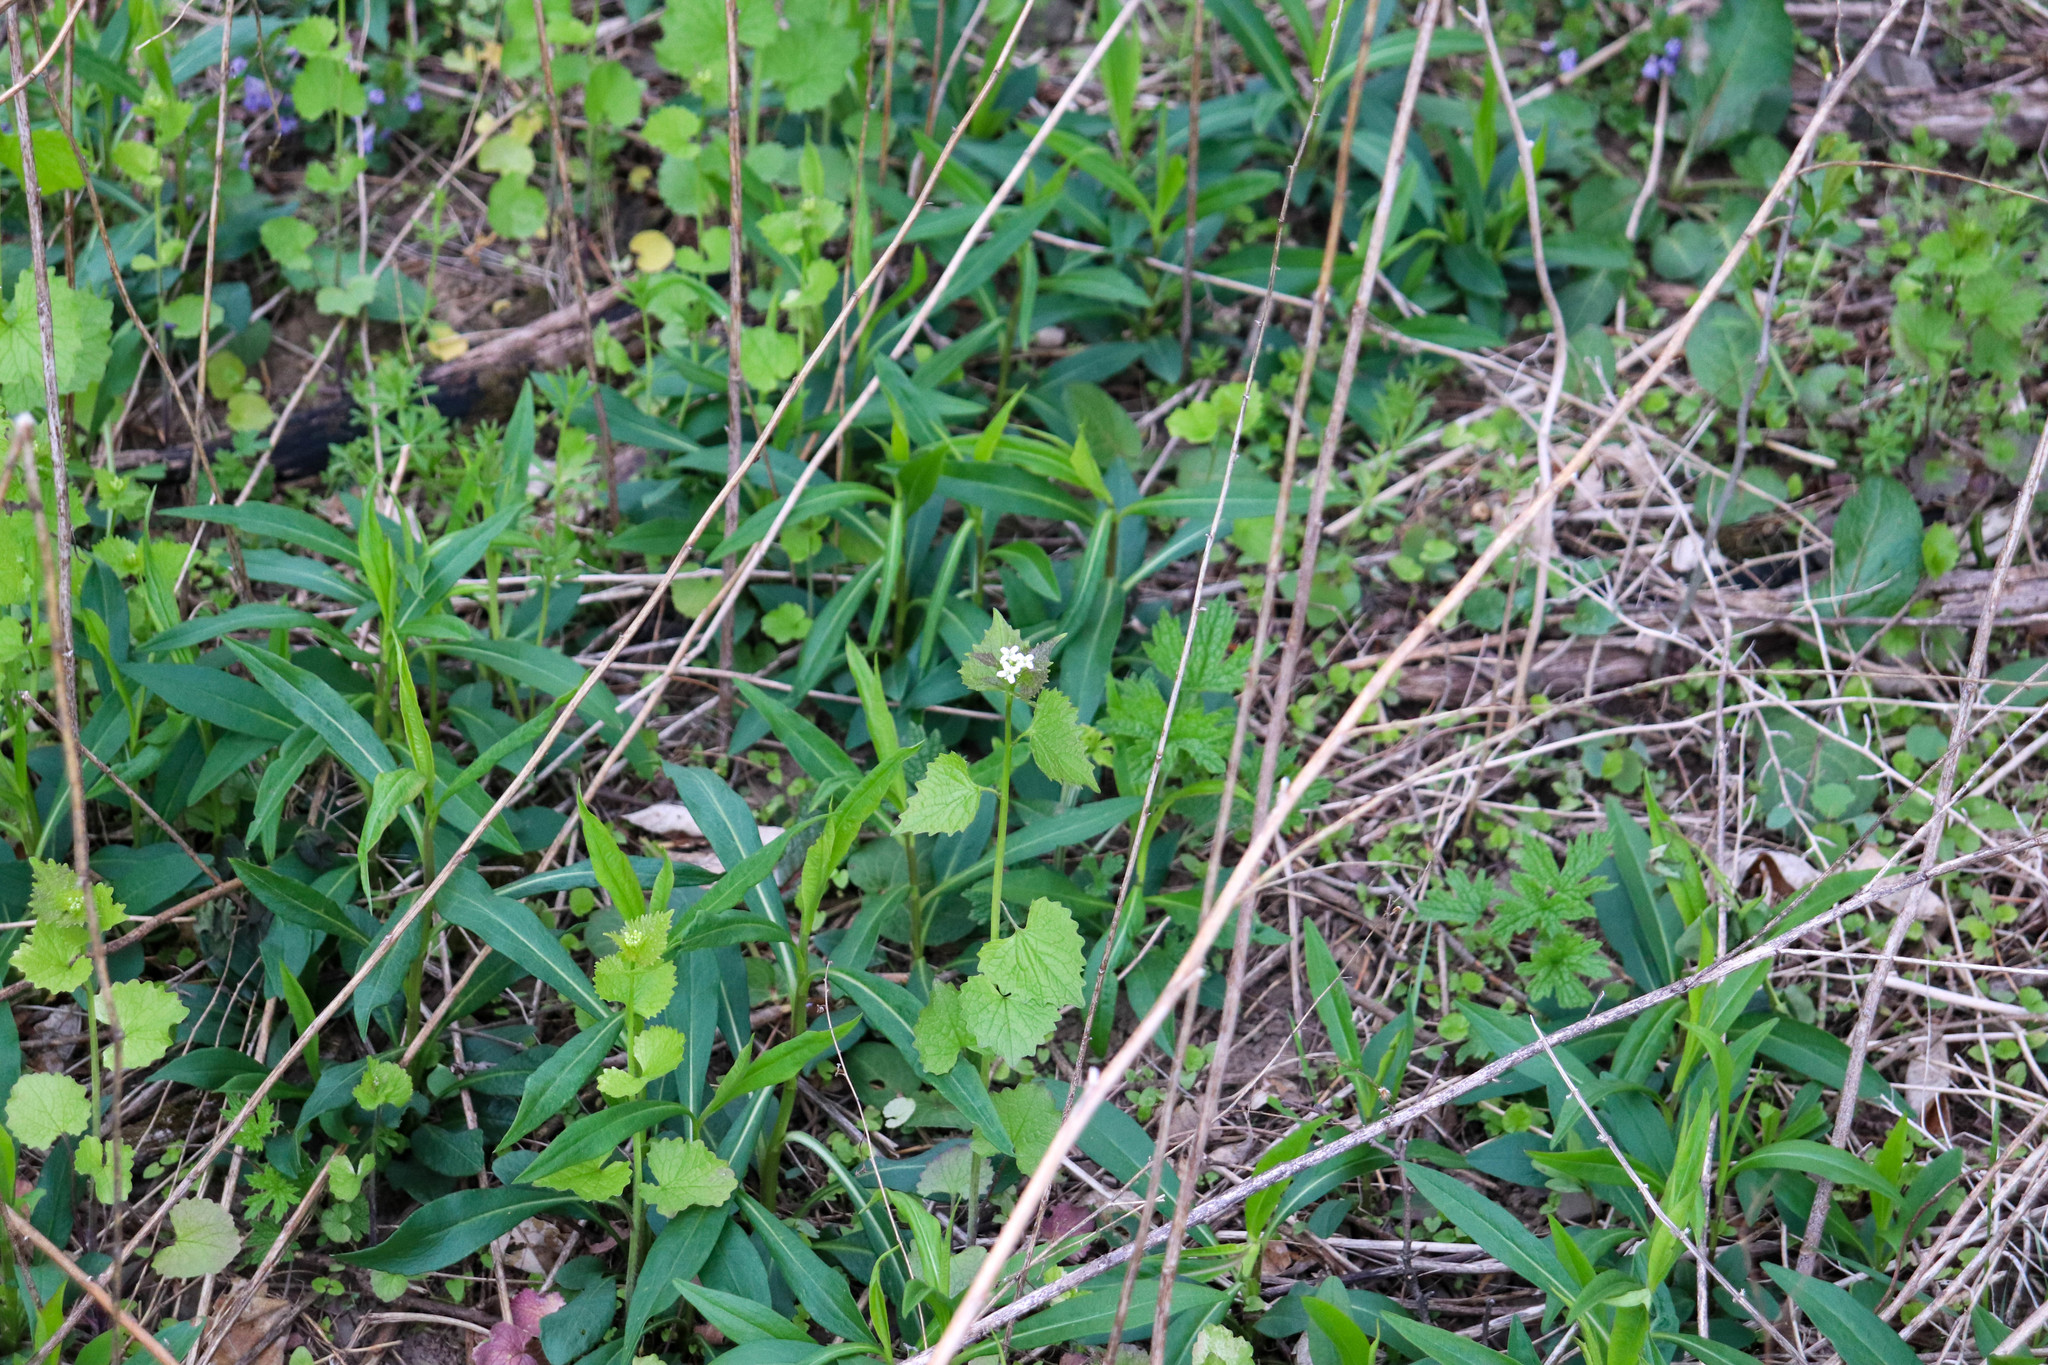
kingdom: Plantae
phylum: Tracheophyta
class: Magnoliopsida
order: Brassicales
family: Brassicaceae
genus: Alliaria
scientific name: Alliaria petiolata
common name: Garlic mustard
